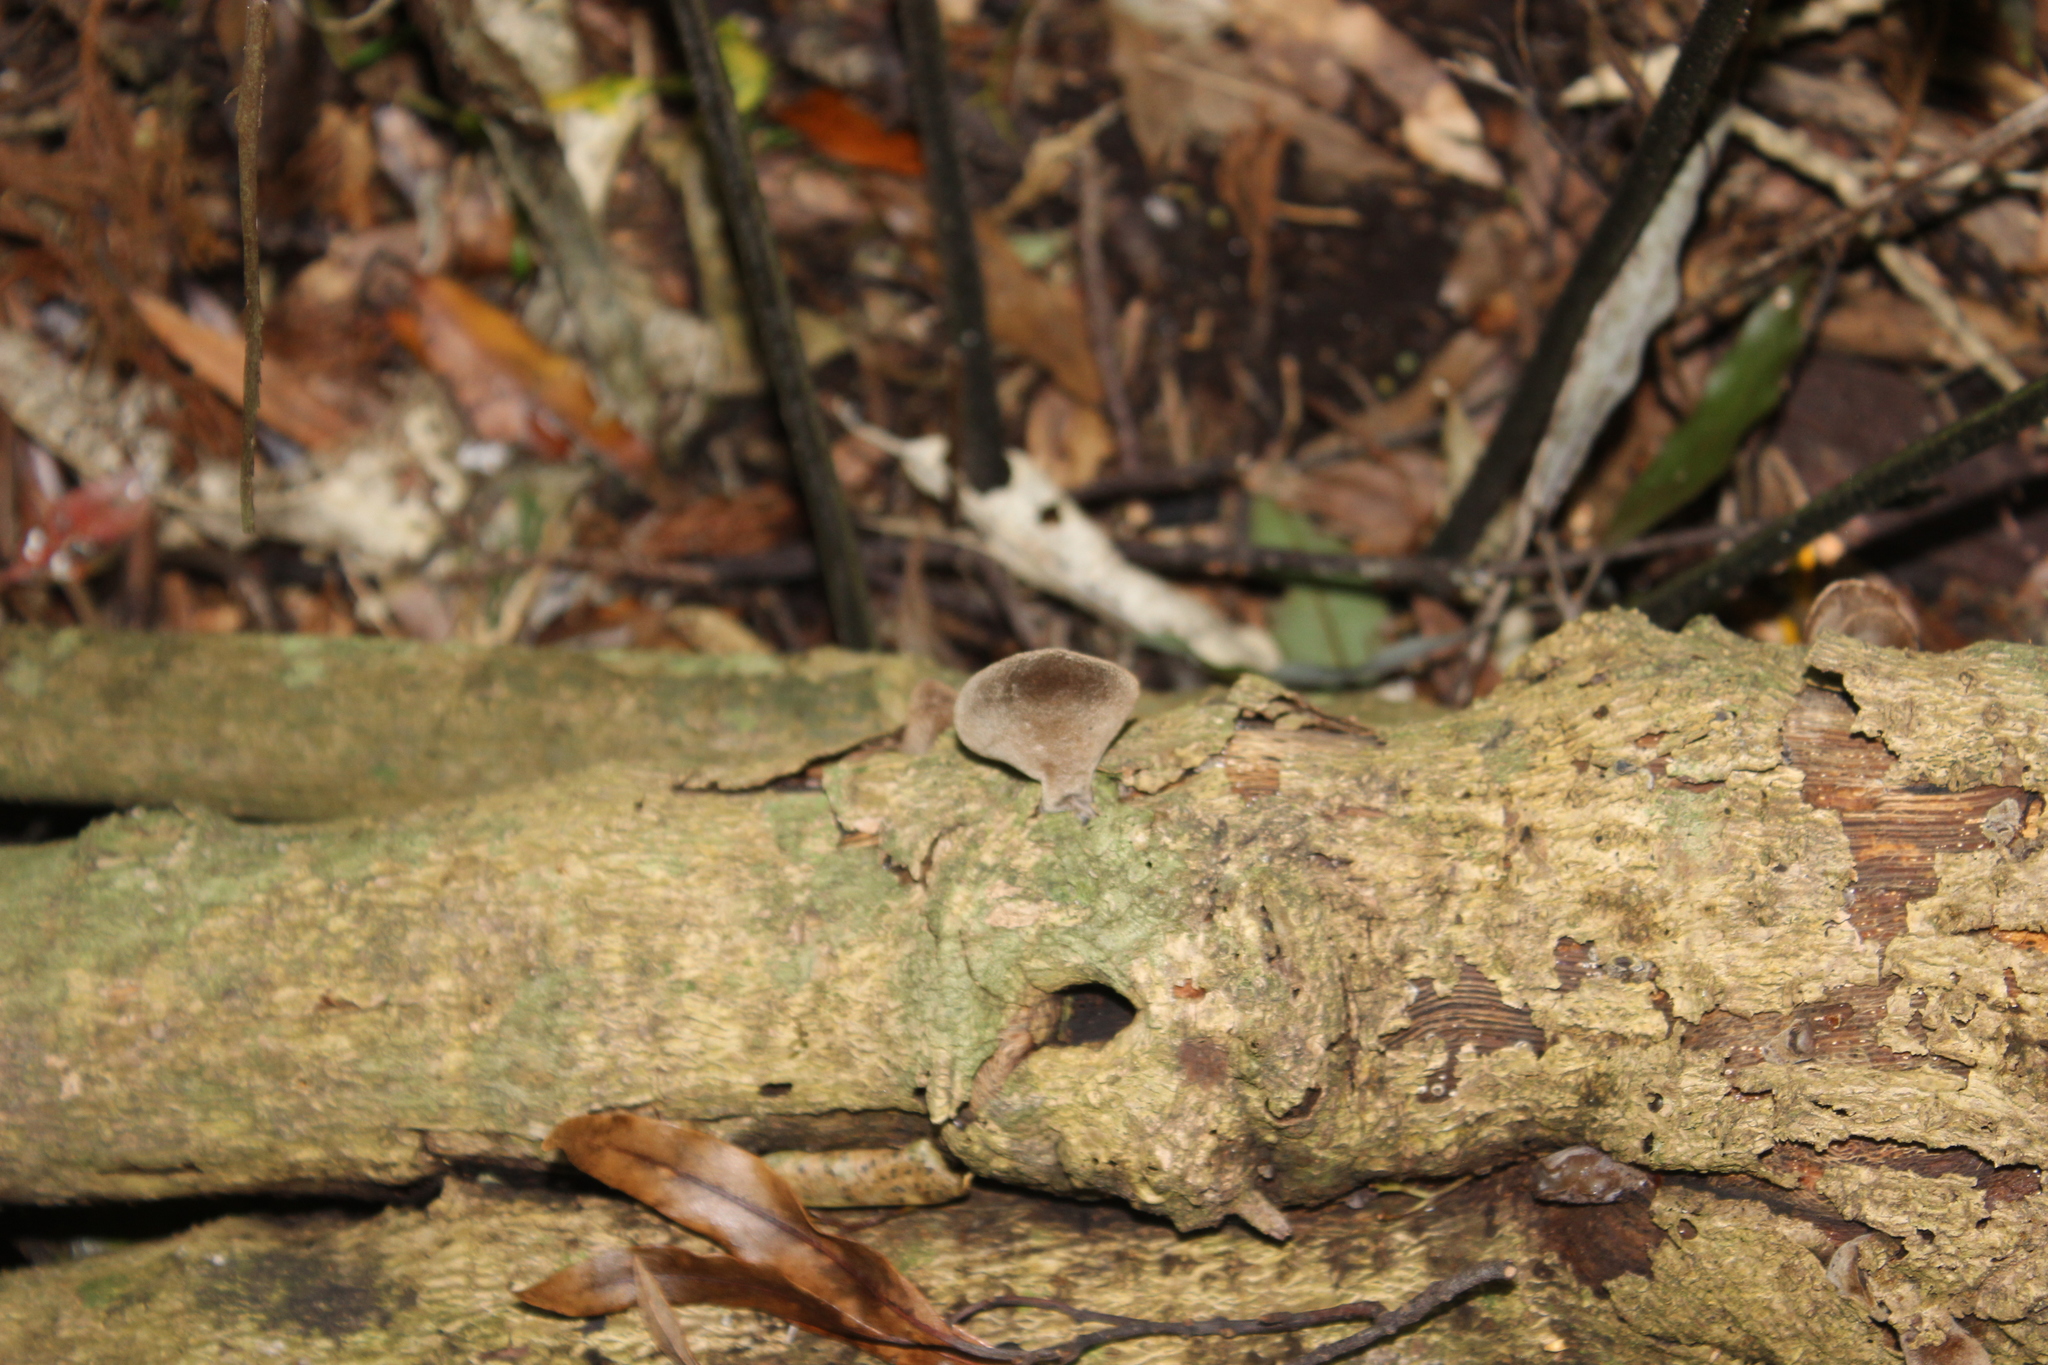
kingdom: Fungi
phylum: Basidiomycota
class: Agaricomycetes
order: Auriculariales
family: Auriculariaceae
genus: Auricularia
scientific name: Auricularia cornea
